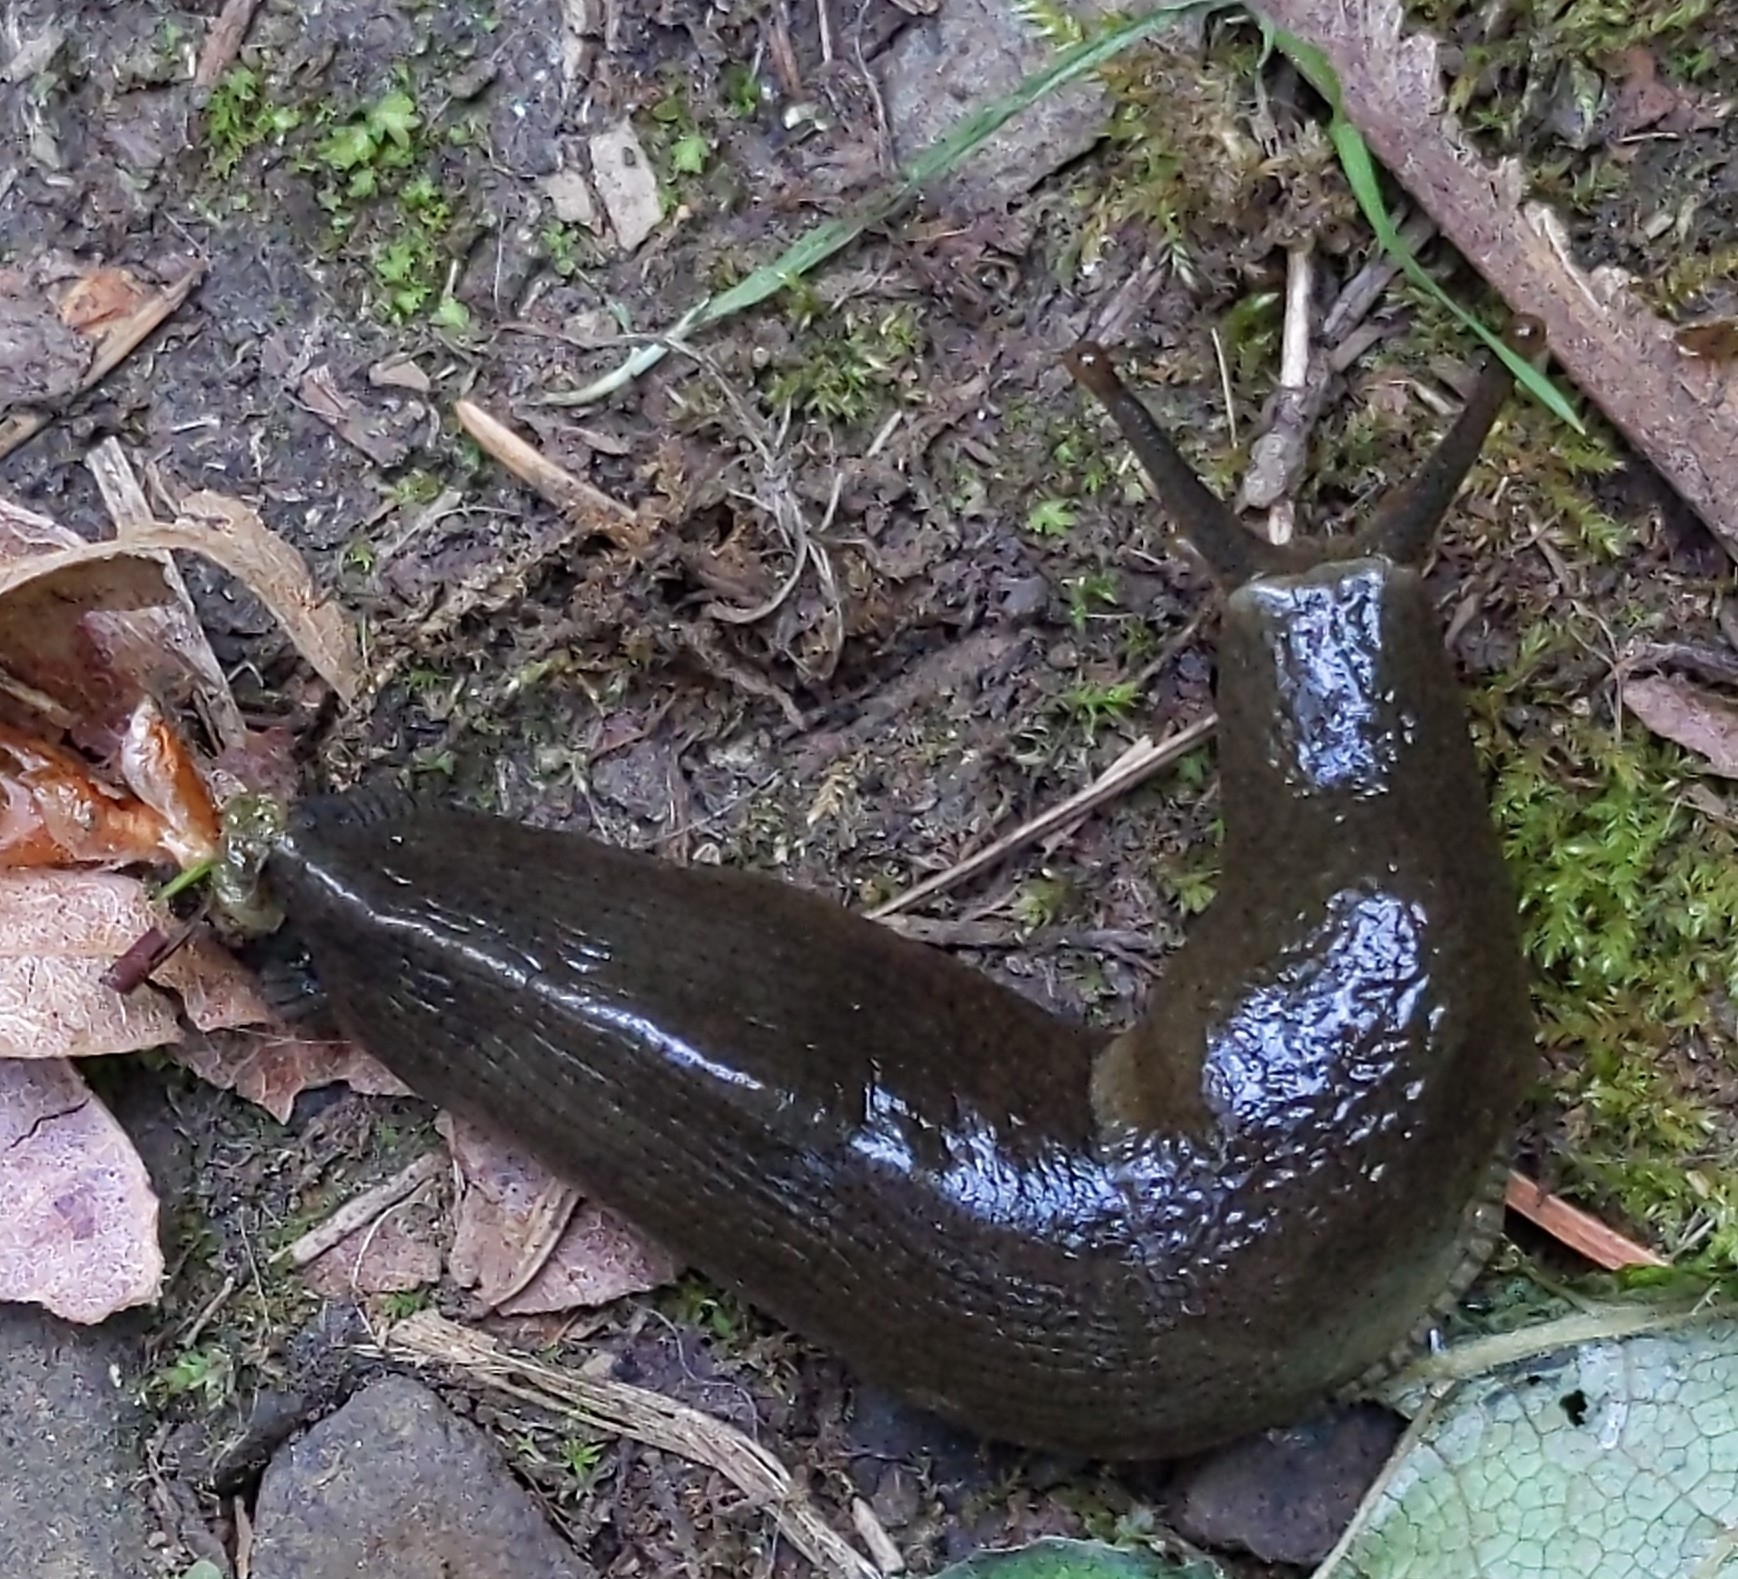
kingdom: Animalia
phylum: Mollusca
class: Gastropoda
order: Stylommatophora
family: Ariolimacidae
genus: Ariolimax
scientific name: Ariolimax columbianus
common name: Pacific banana slug
